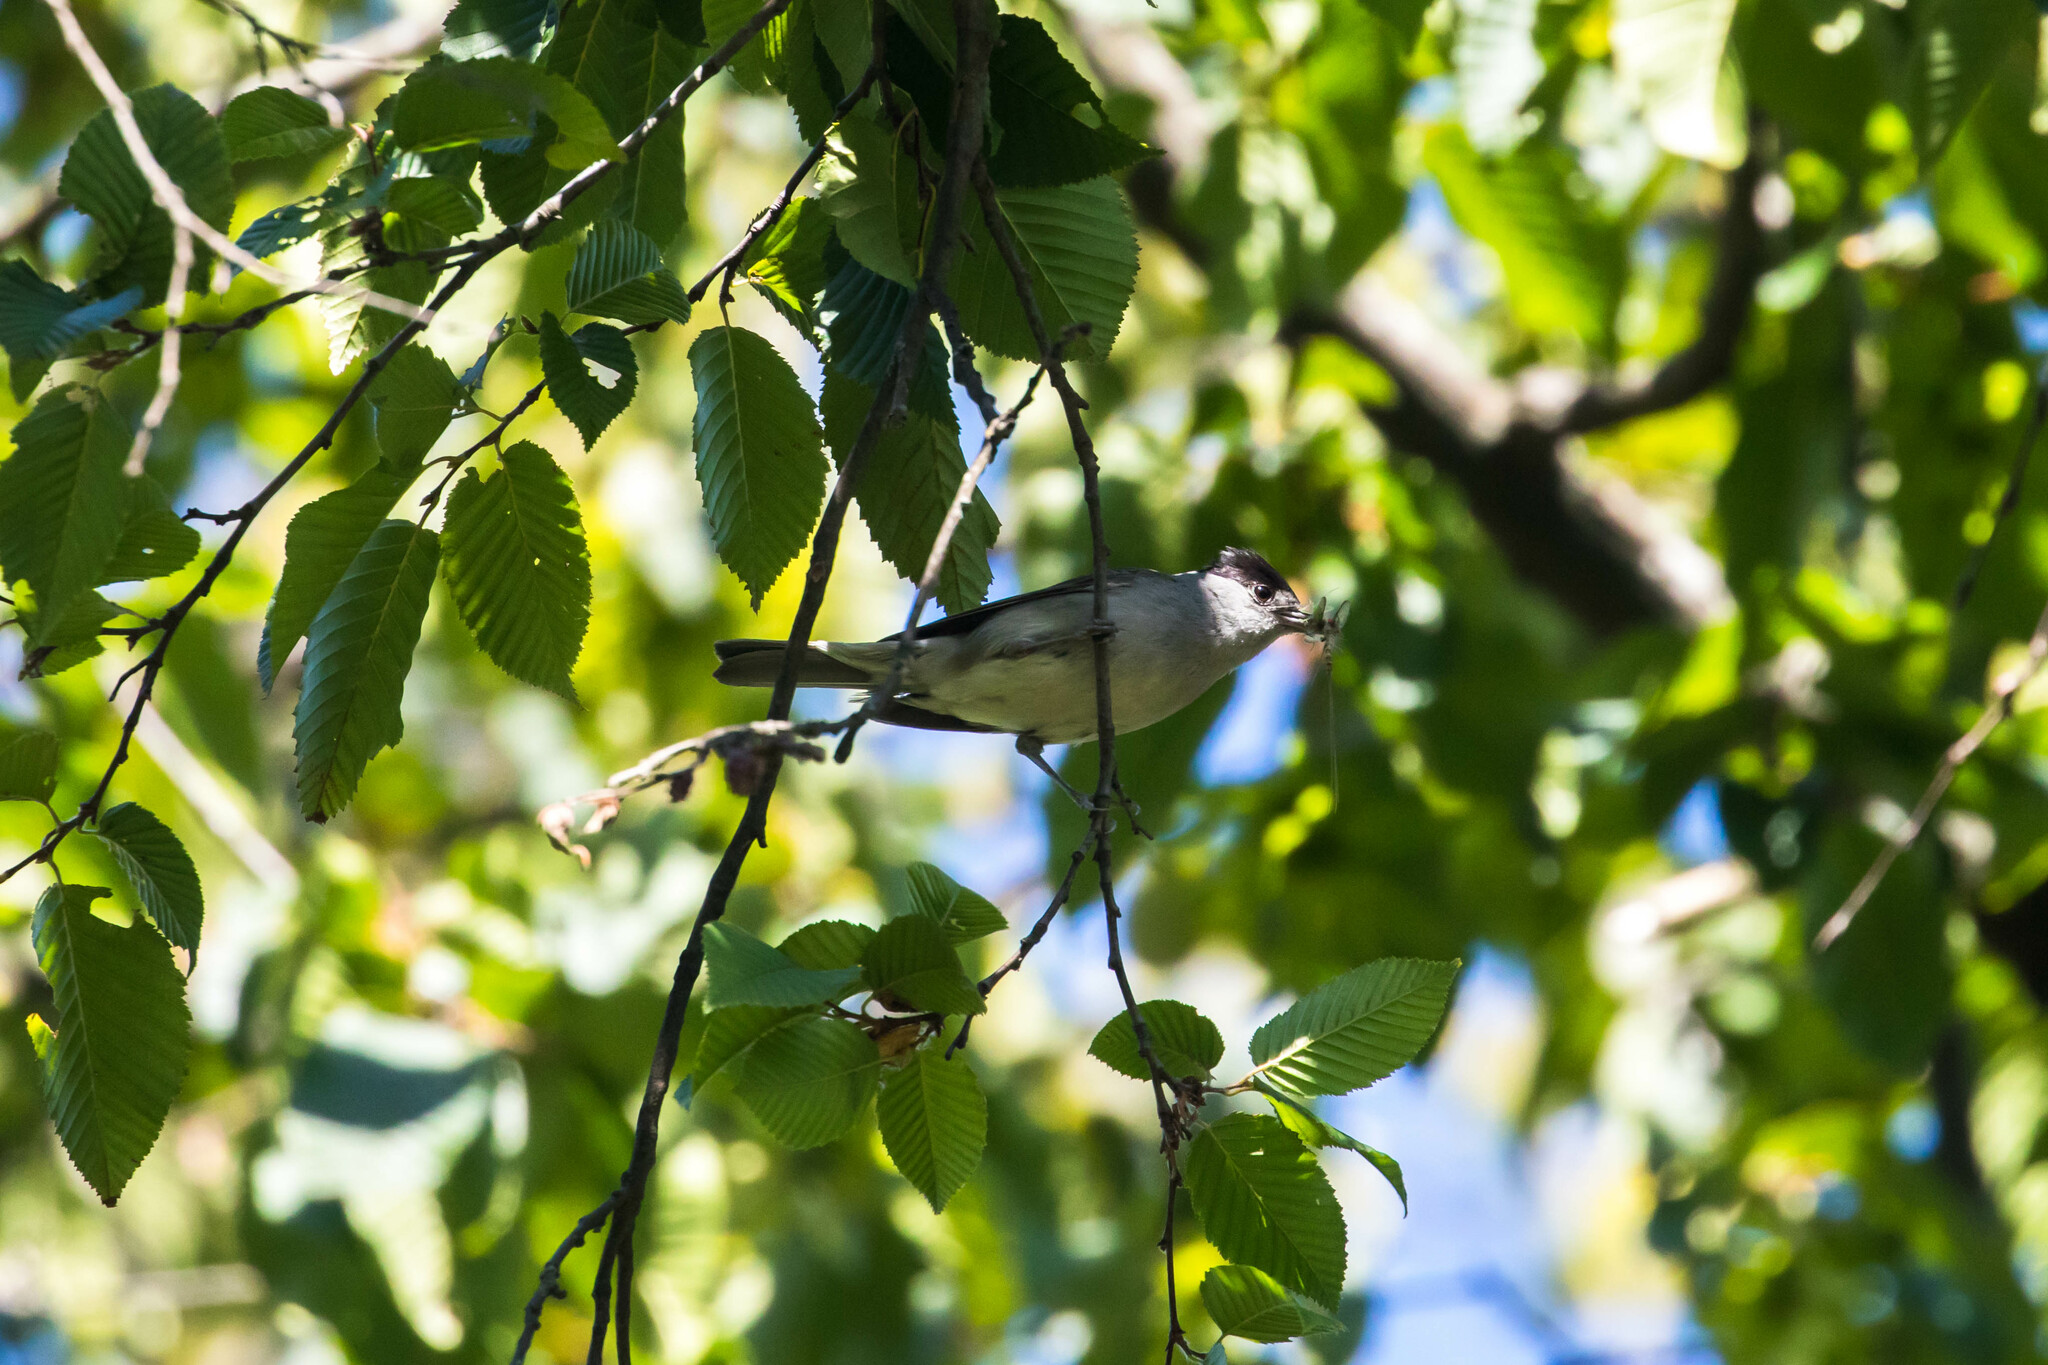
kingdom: Animalia
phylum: Chordata
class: Aves
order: Passeriformes
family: Sylviidae
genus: Sylvia
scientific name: Sylvia atricapilla
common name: Eurasian blackcap
